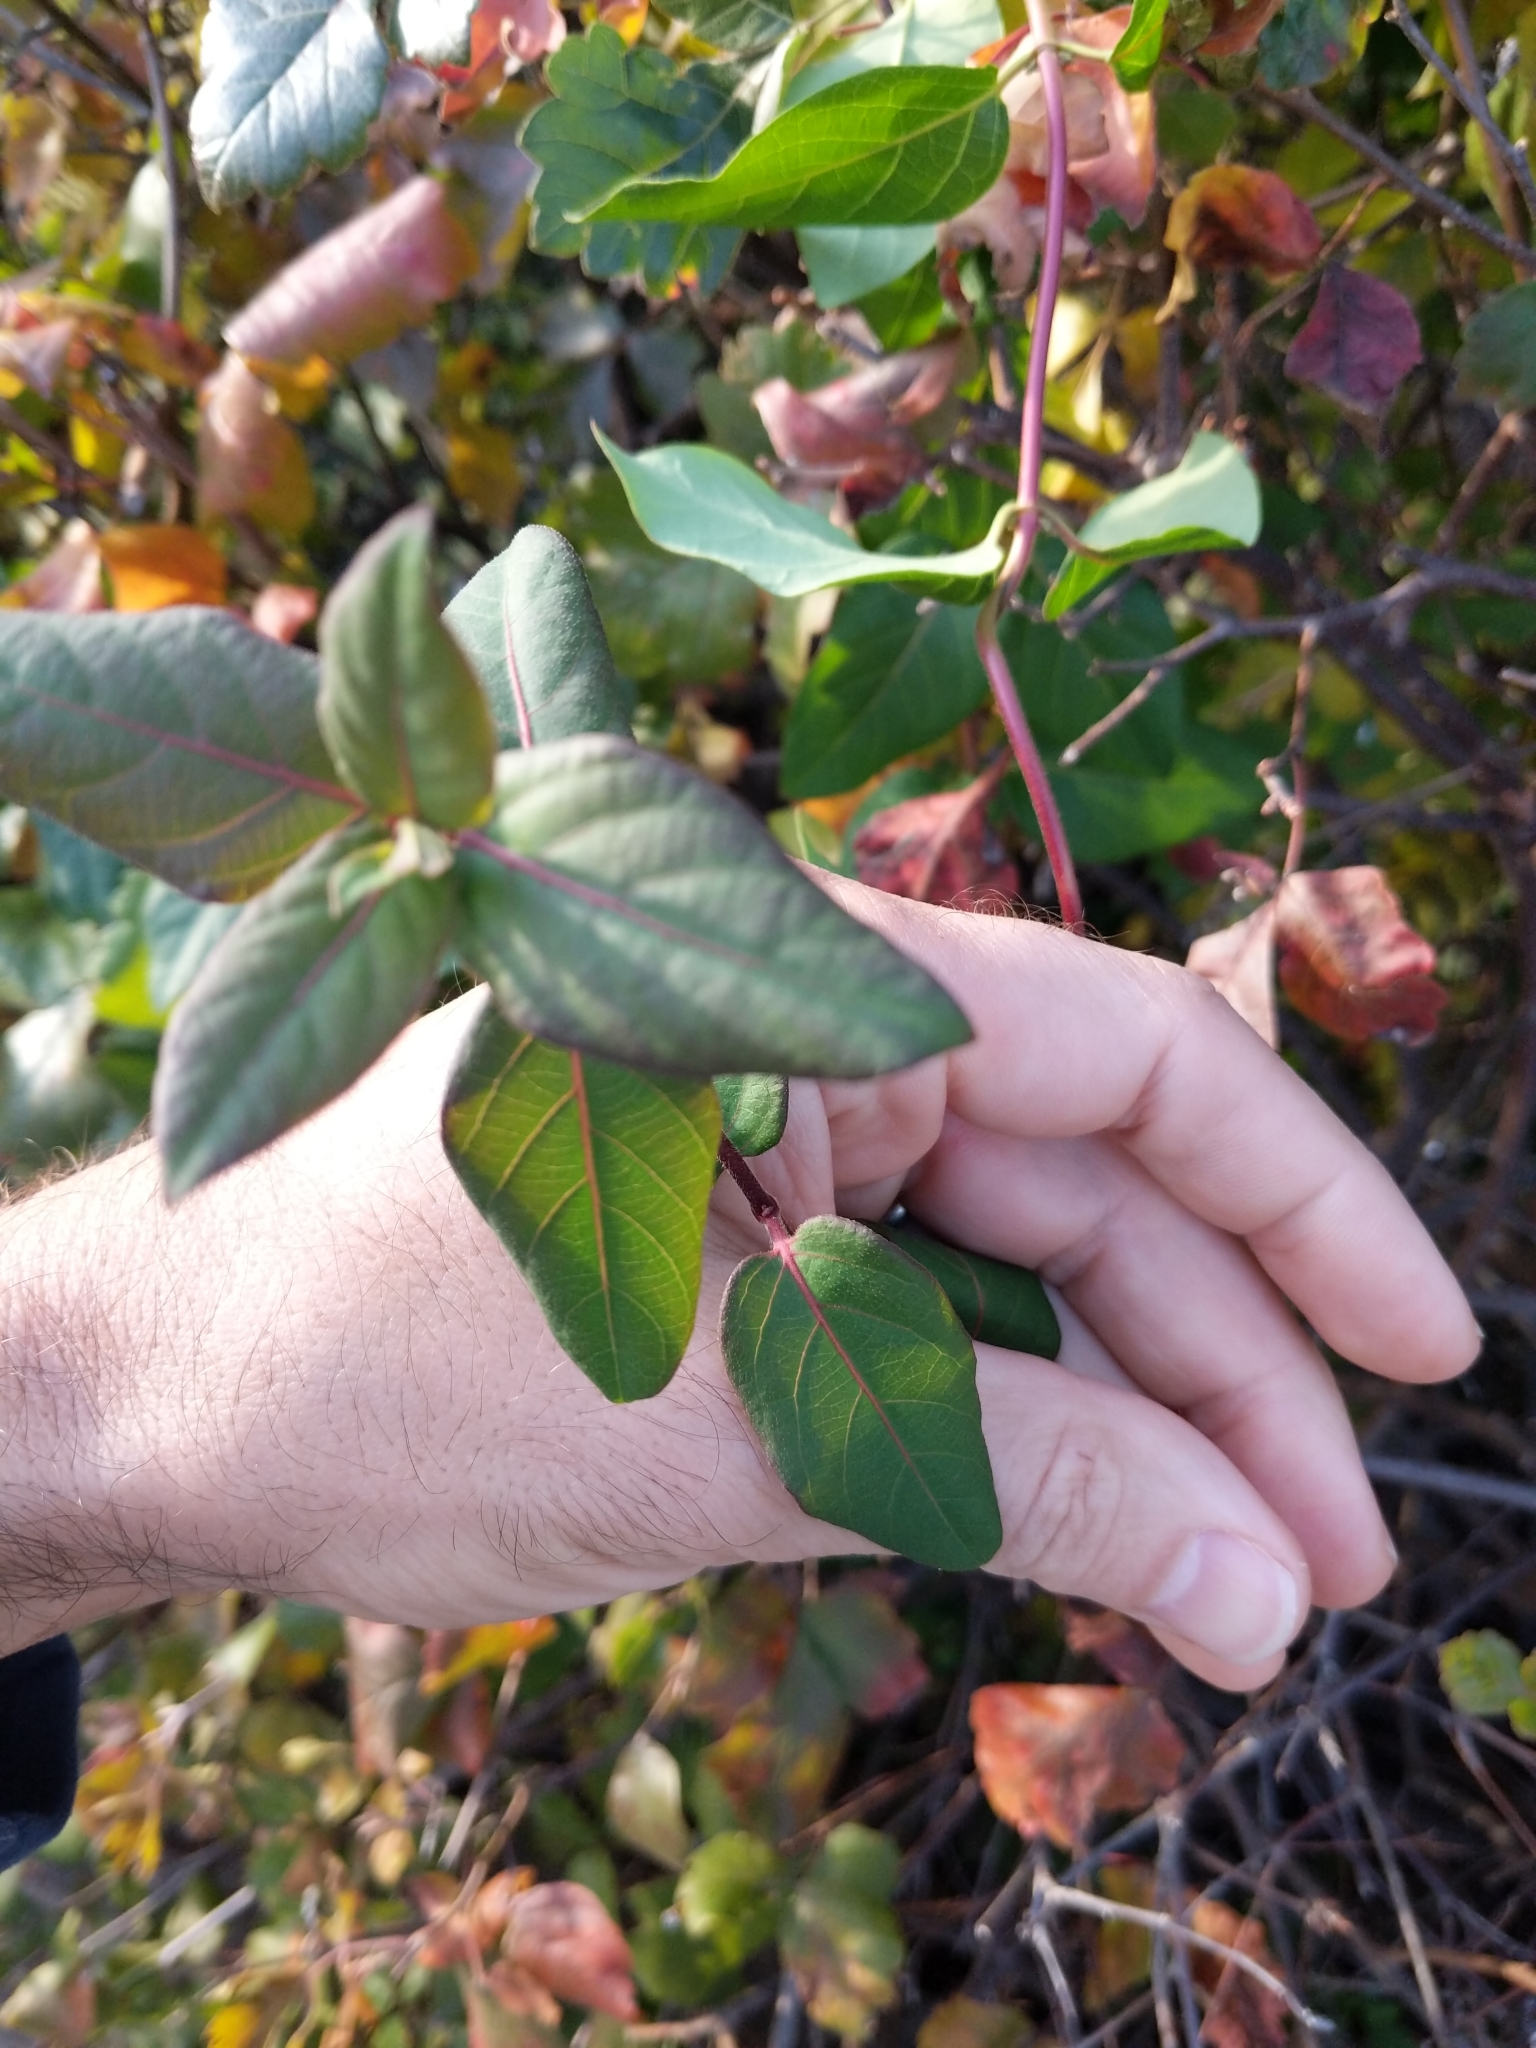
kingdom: Plantae
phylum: Tracheophyta
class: Magnoliopsida
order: Dipsacales
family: Caprifoliaceae
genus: Lonicera
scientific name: Lonicera japonica
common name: Japanese honeysuckle
